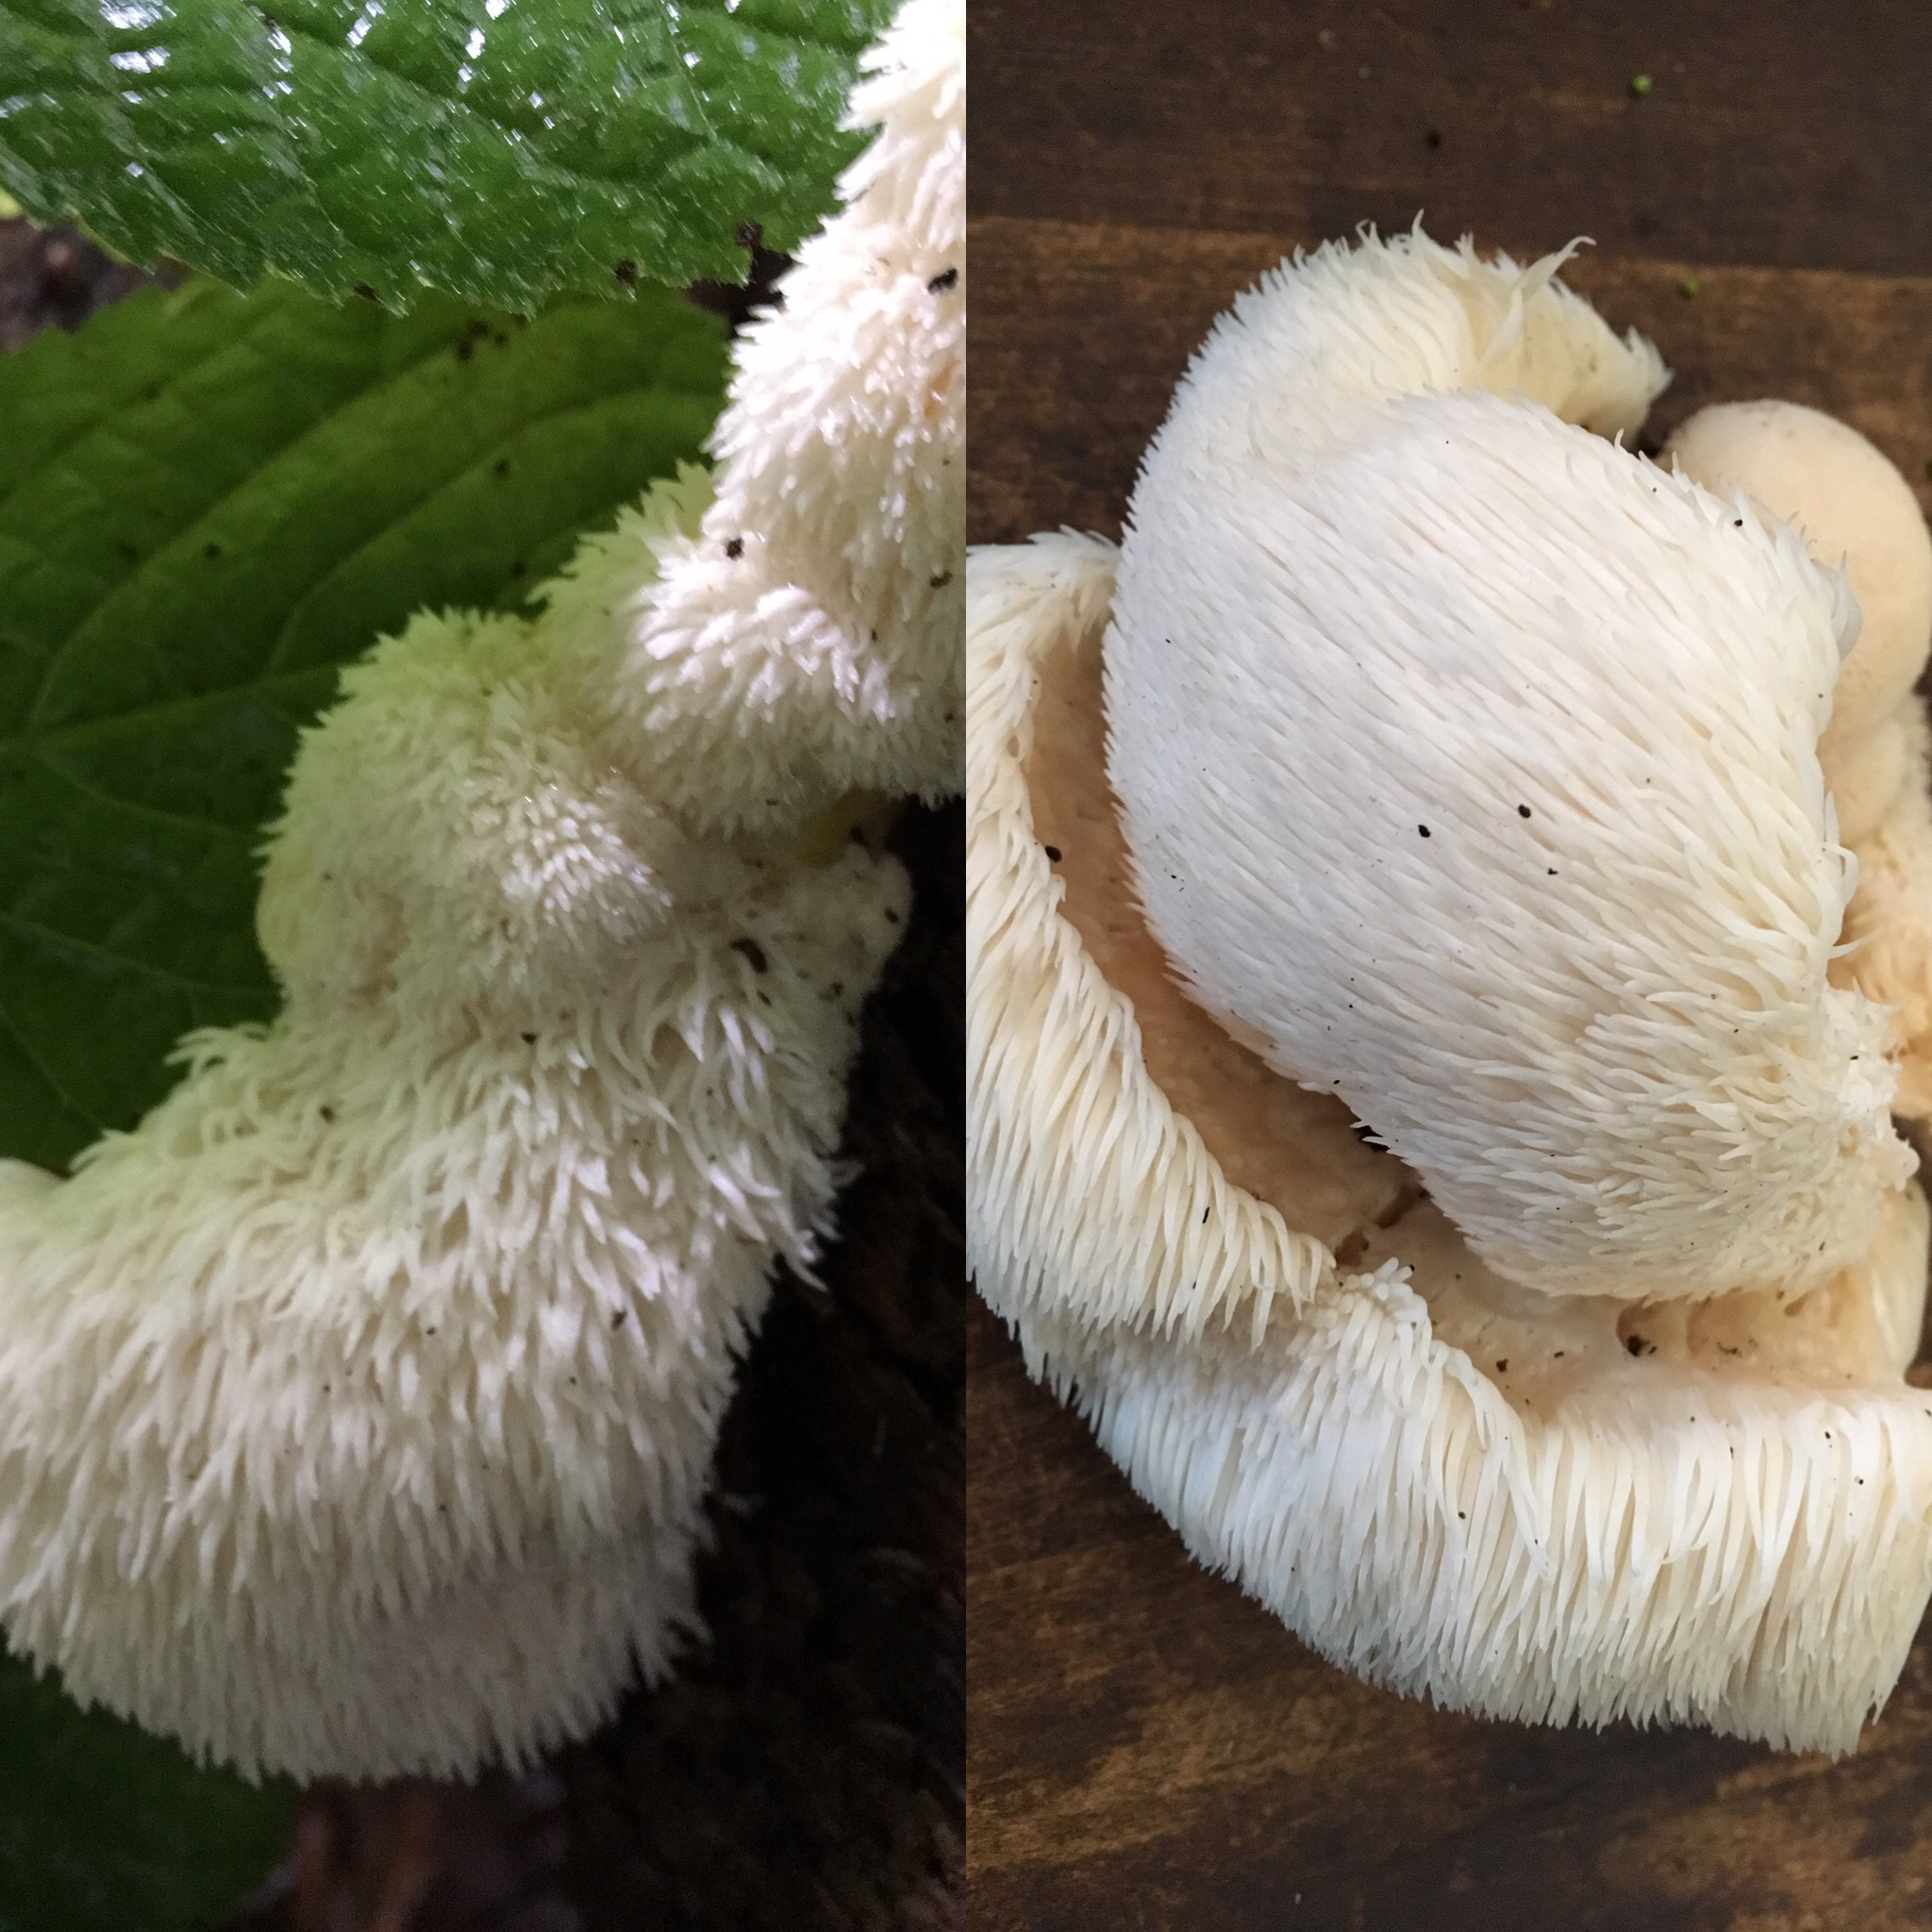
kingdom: Fungi
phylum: Basidiomycota
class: Agaricomycetes
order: Russulales
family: Hericiaceae
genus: Hericium
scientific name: Hericium erinaceus
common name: Bearded tooth
